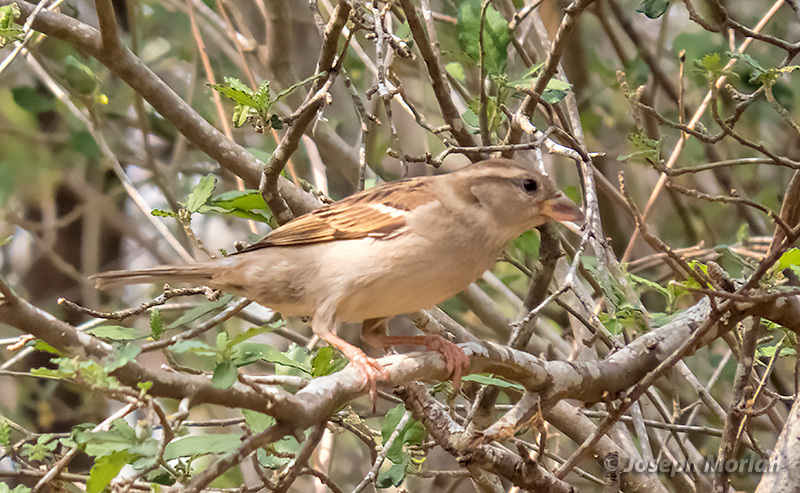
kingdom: Animalia
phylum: Chordata
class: Aves
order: Passeriformes
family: Passeridae
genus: Passer
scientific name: Passer domesticus
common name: House sparrow
